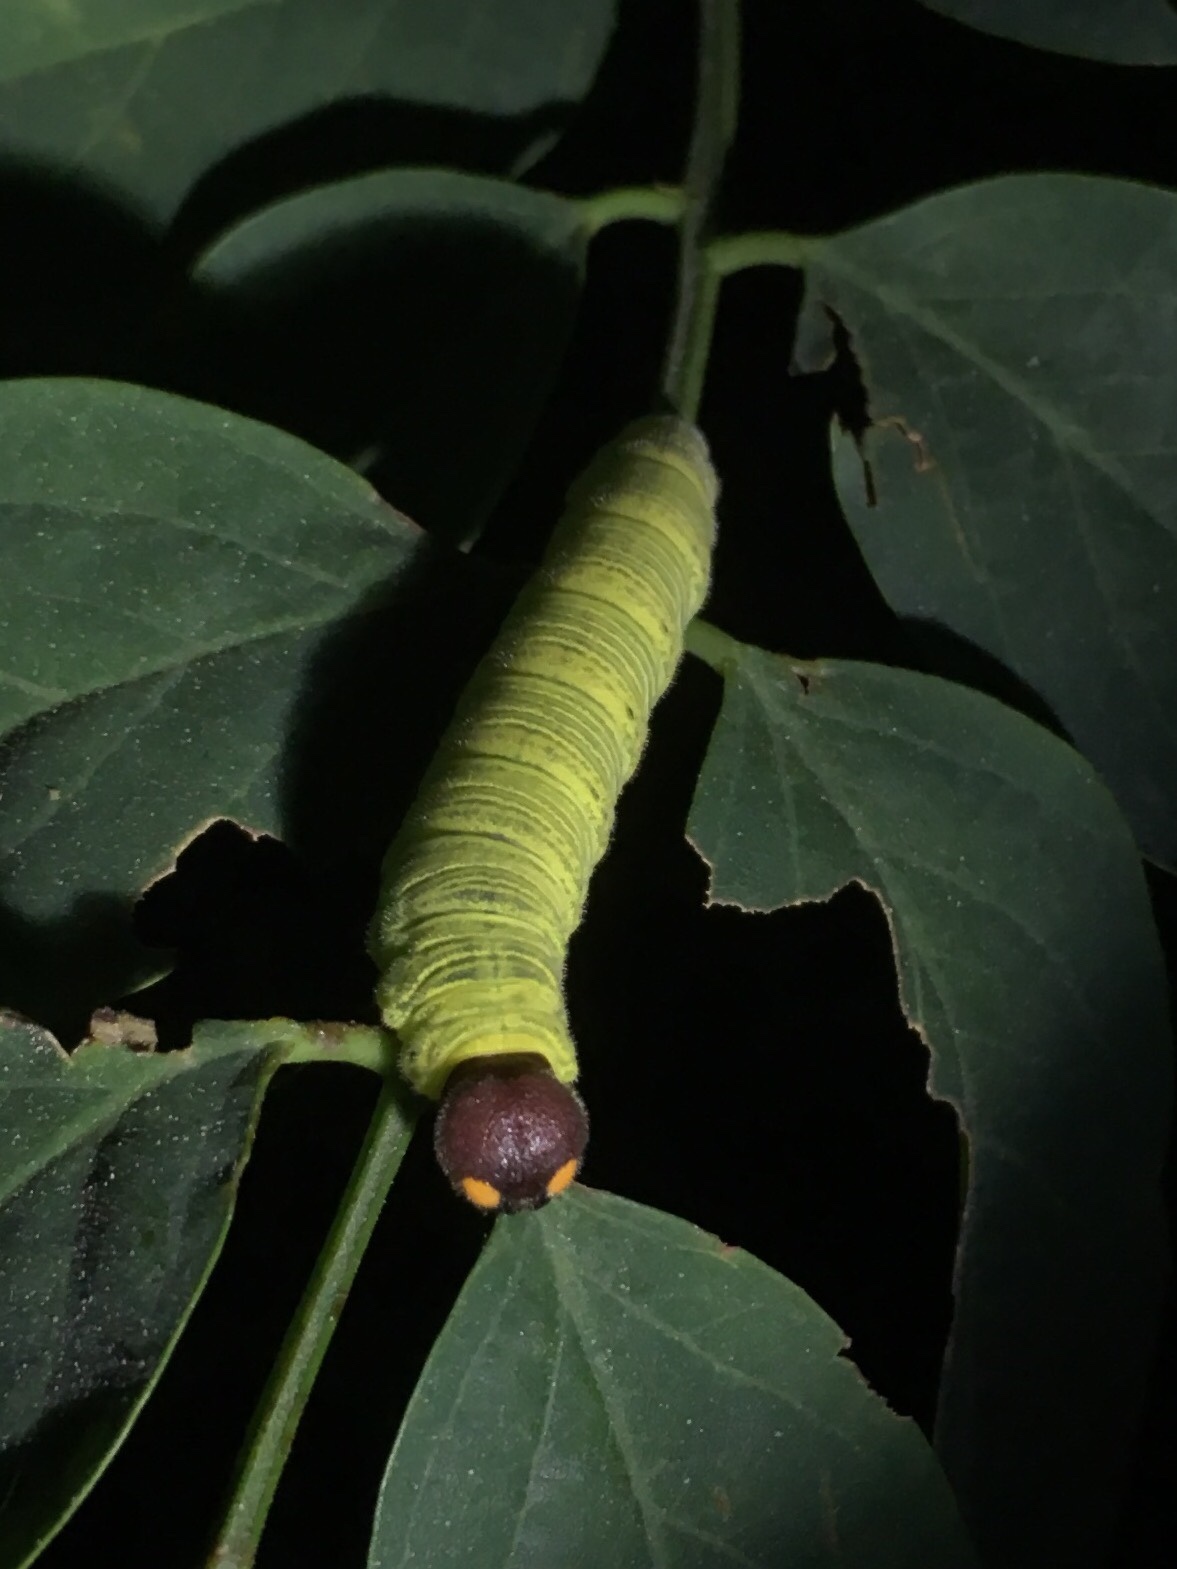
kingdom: Animalia
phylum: Arthropoda
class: Insecta
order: Lepidoptera
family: Hesperiidae
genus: Epargyreus
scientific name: Epargyreus clarus
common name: Silver-spotted skipper
